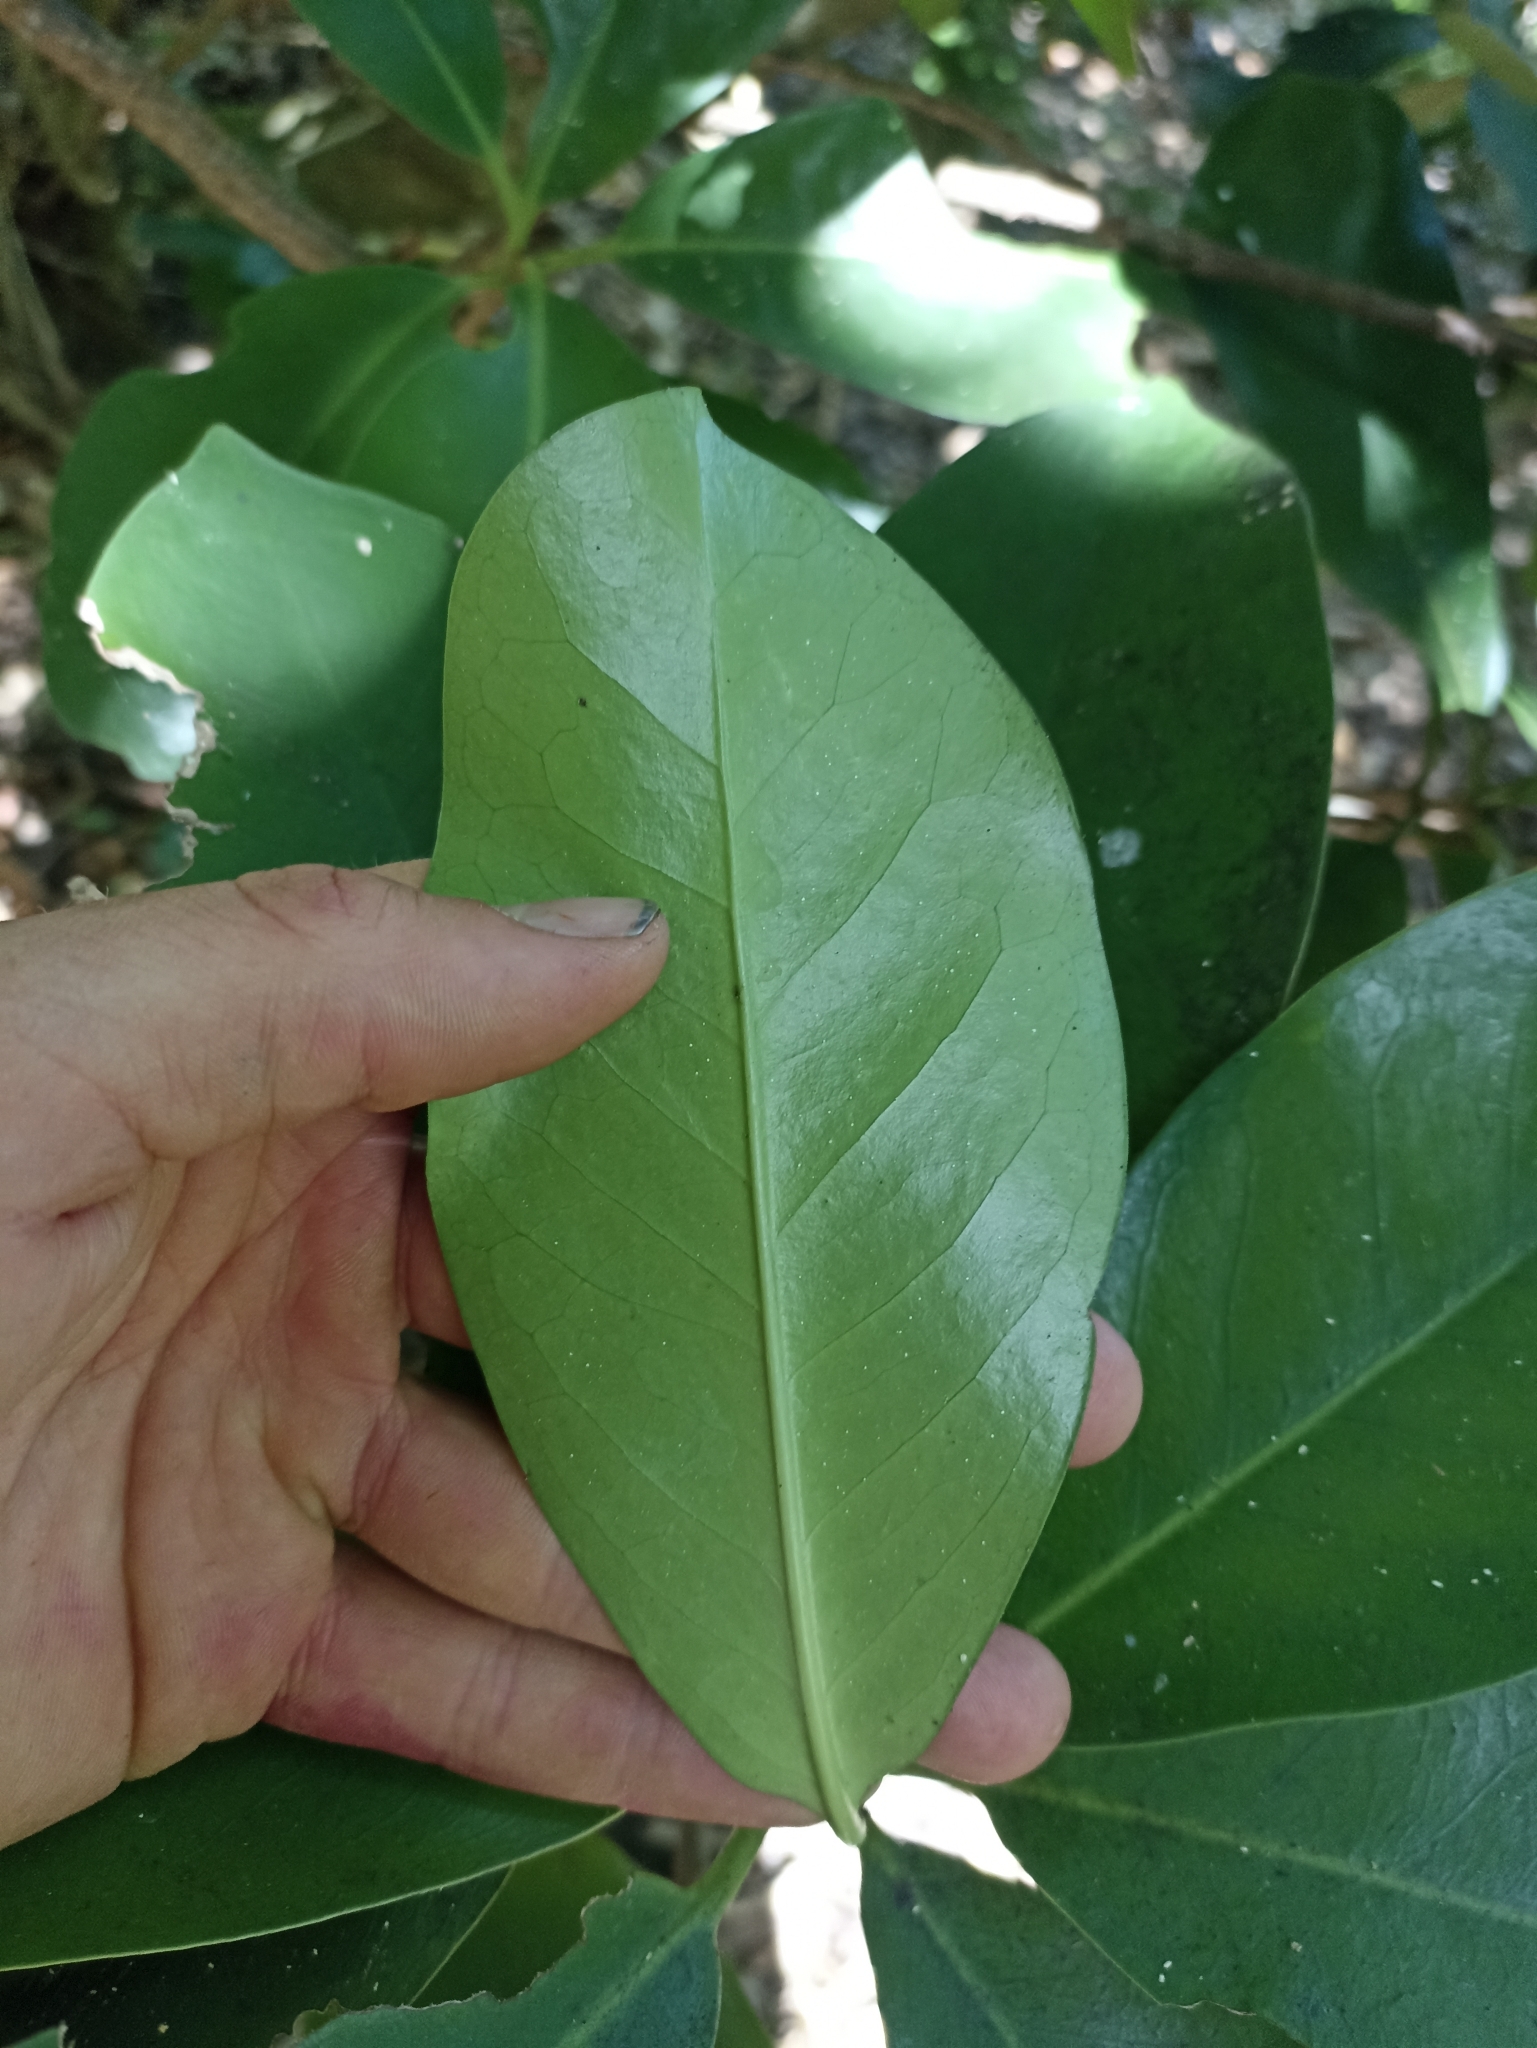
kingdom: Plantae
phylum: Tracheophyta
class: Magnoliopsida
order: Cucurbitales
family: Corynocarpaceae
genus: Corynocarpus
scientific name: Corynocarpus laevigatus
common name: New zealand laurel
